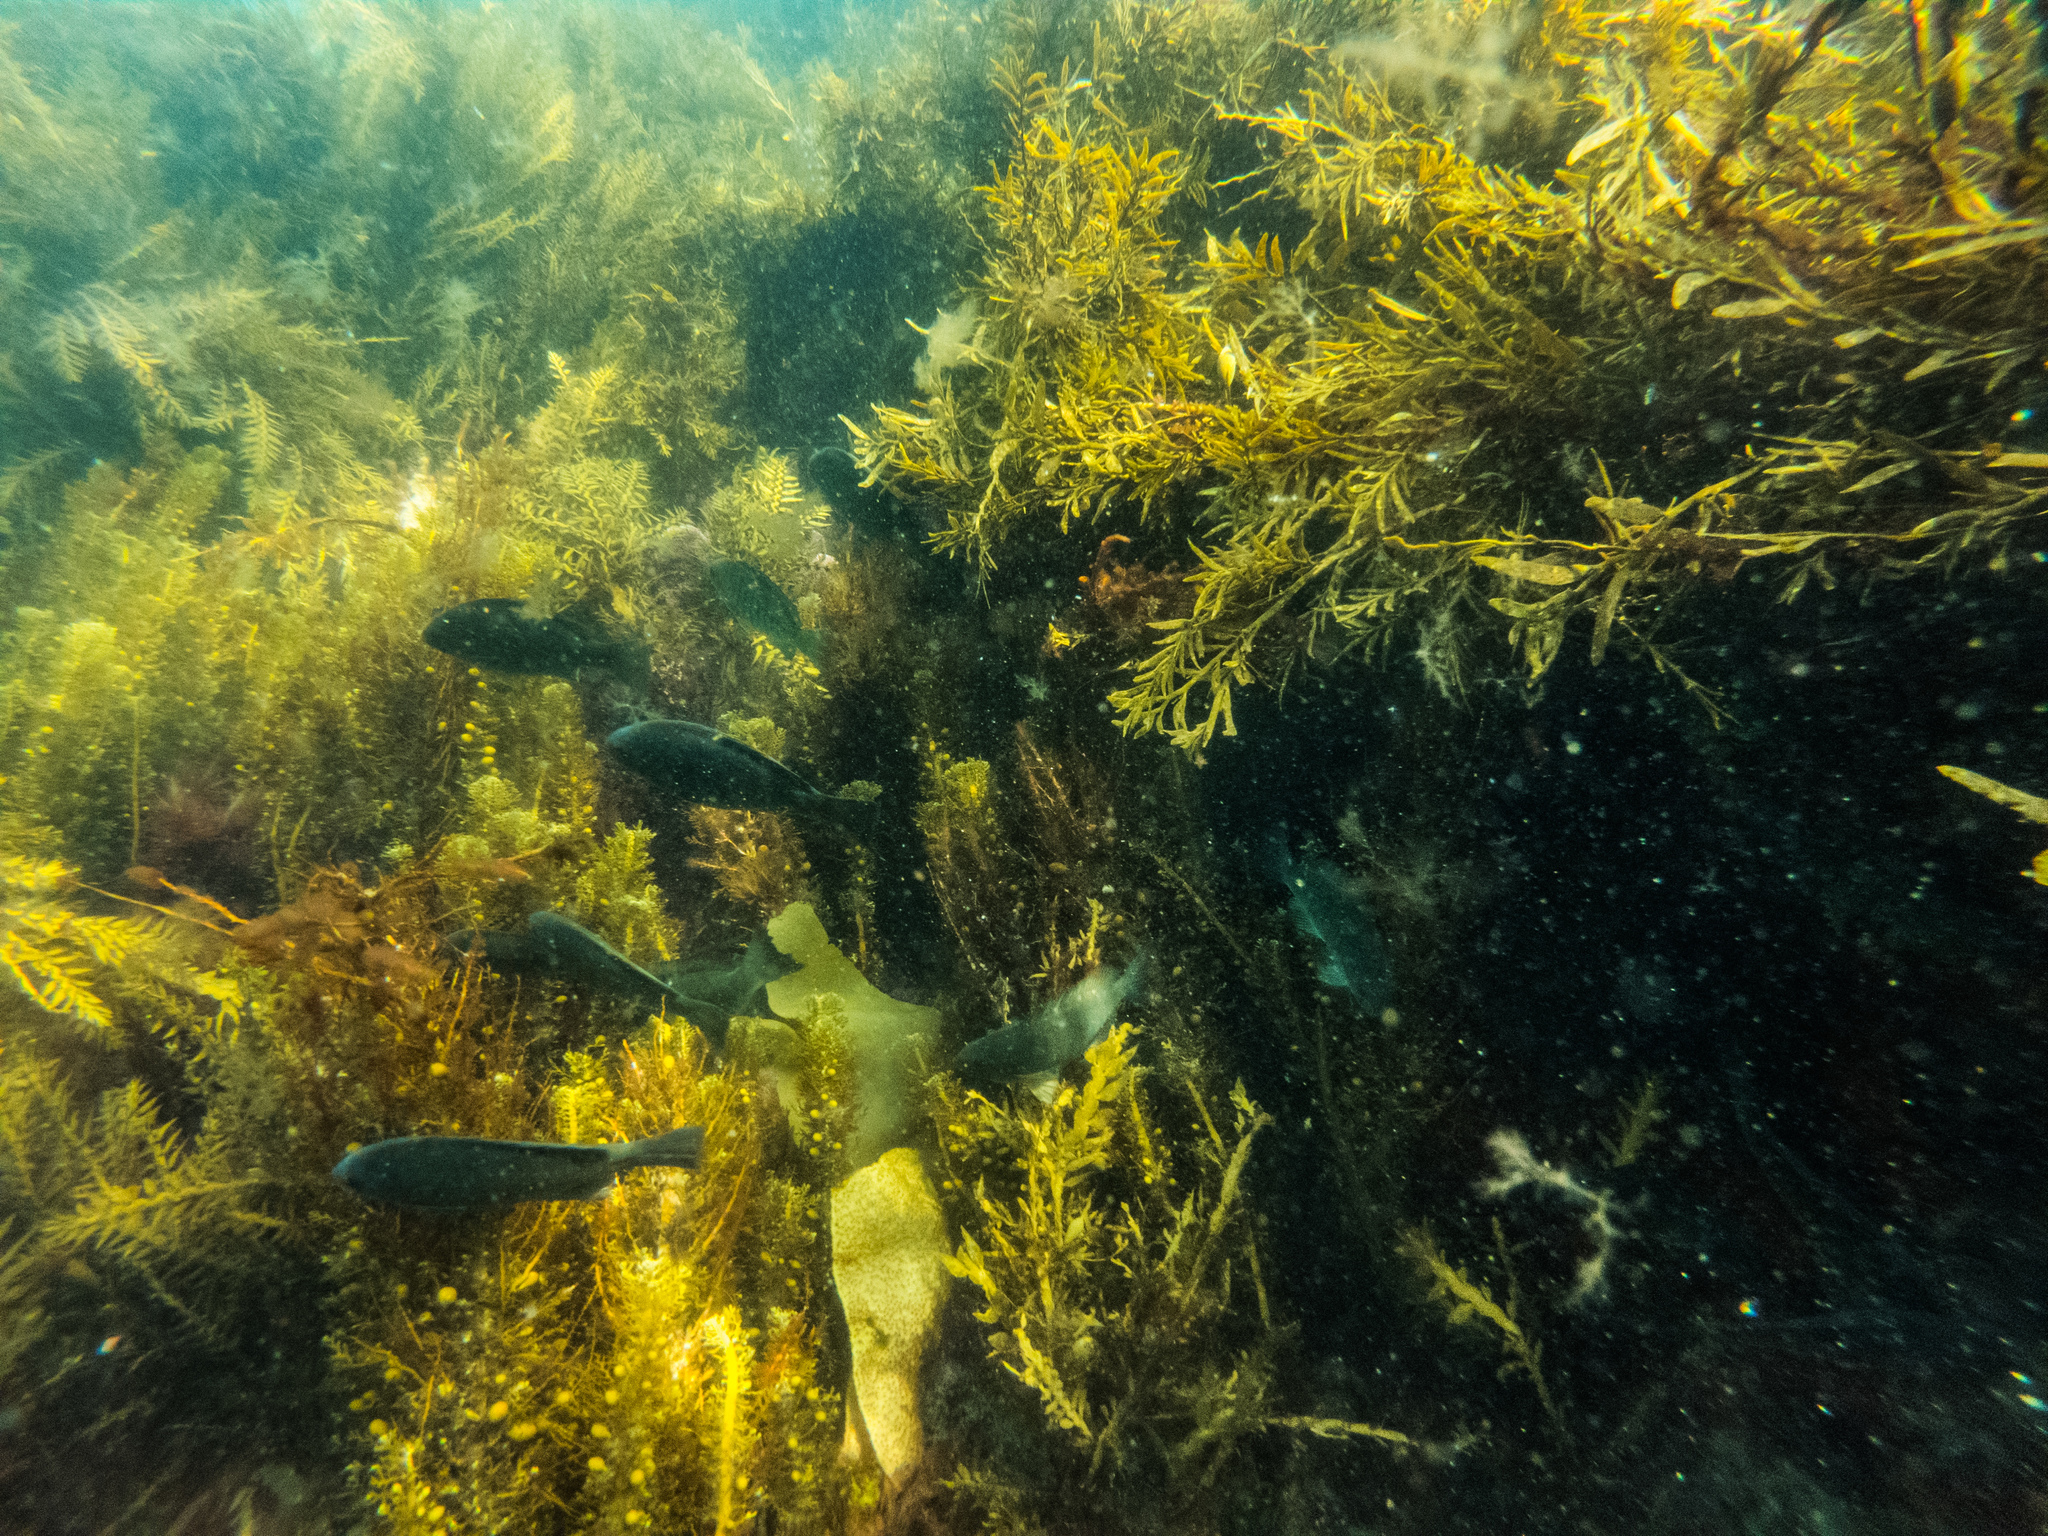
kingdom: Animalia
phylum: Chordata
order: Perciformes
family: Kyphosidae
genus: Girella
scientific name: Girella tricuspidata
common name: Parore
